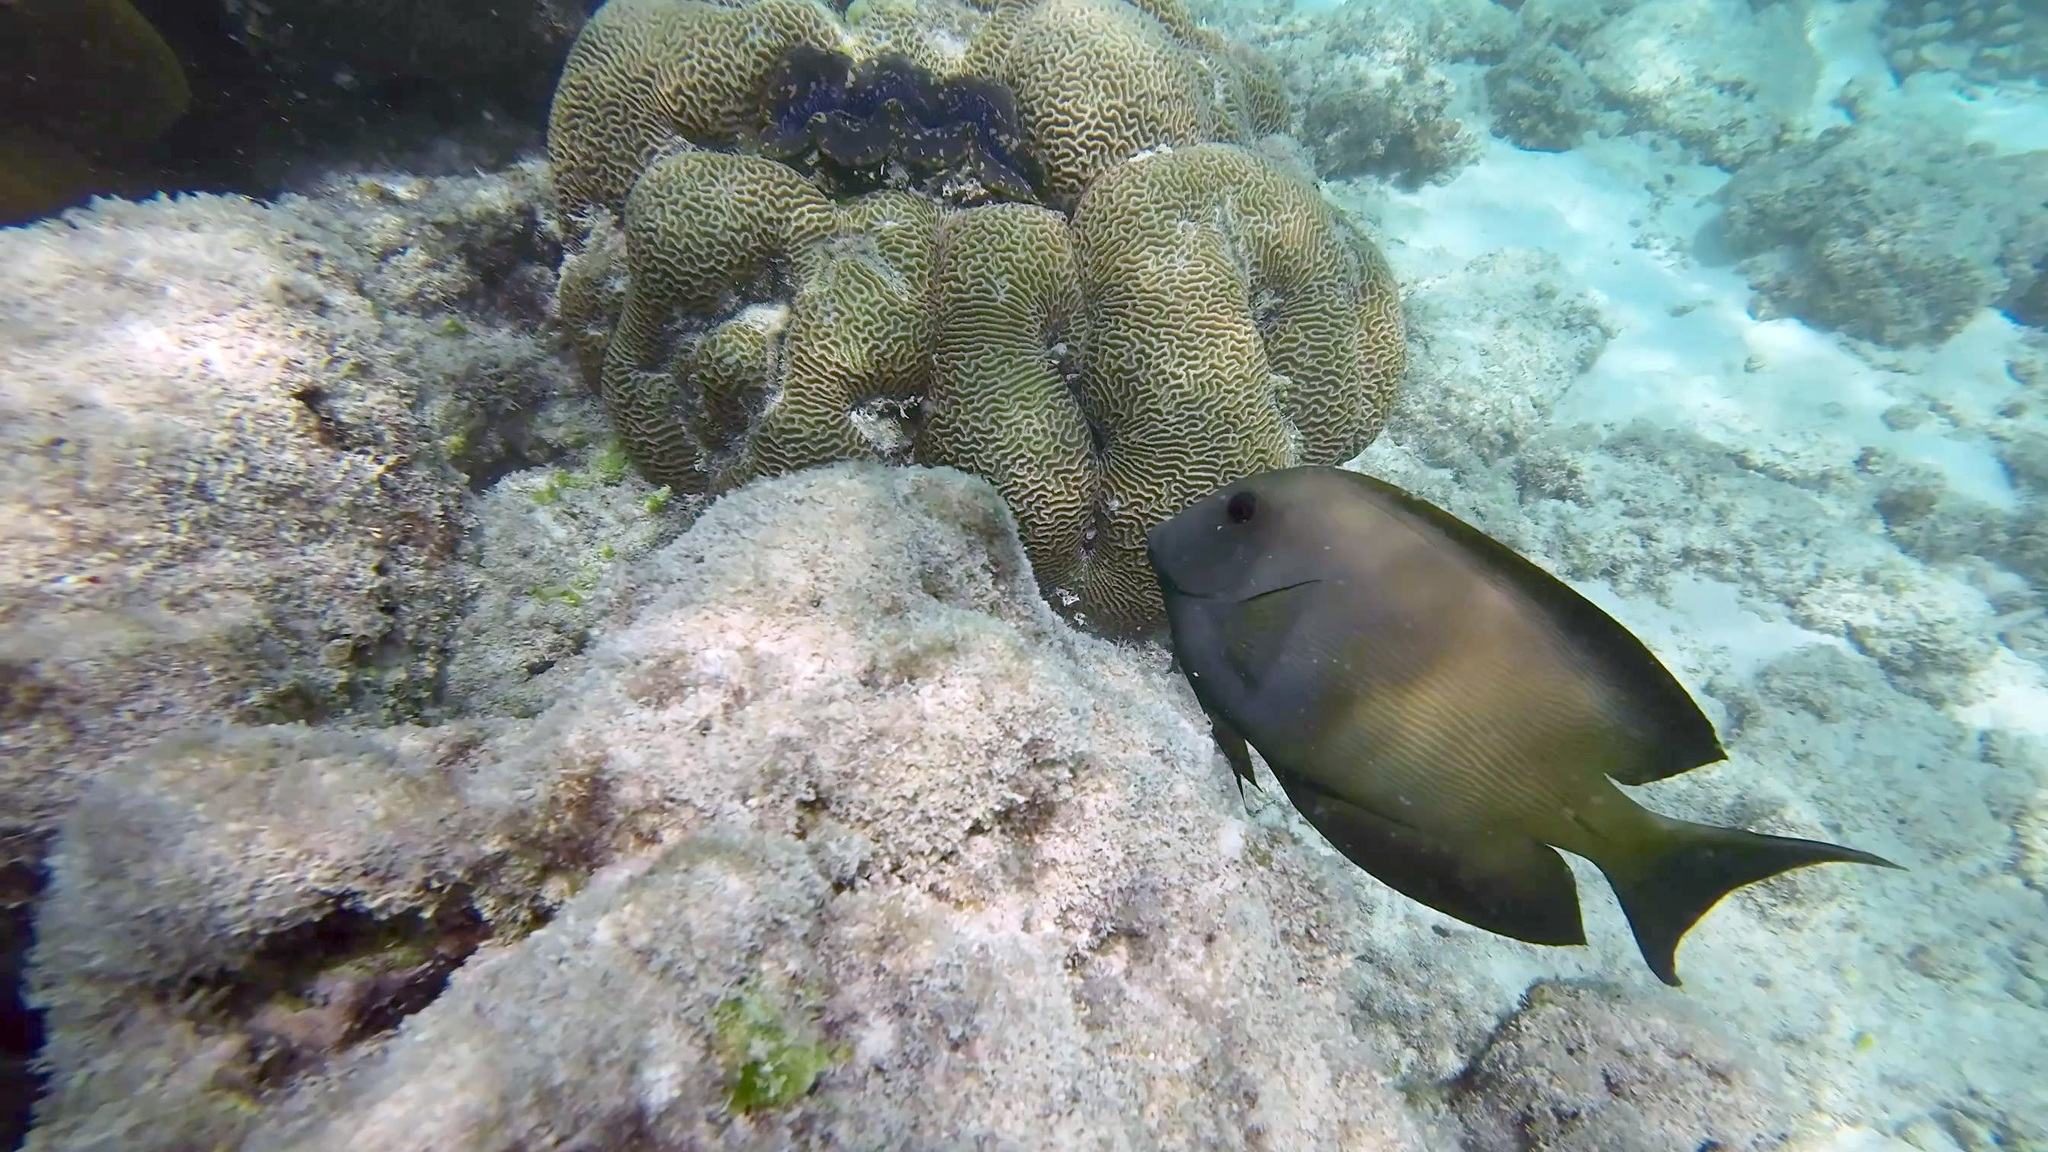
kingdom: Animalia
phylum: Chordata
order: Perciformes
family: Acanthuridae
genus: Ctenochaetus
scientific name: Ctenochaetus striatus
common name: Bristle-toothed surgeonfish
